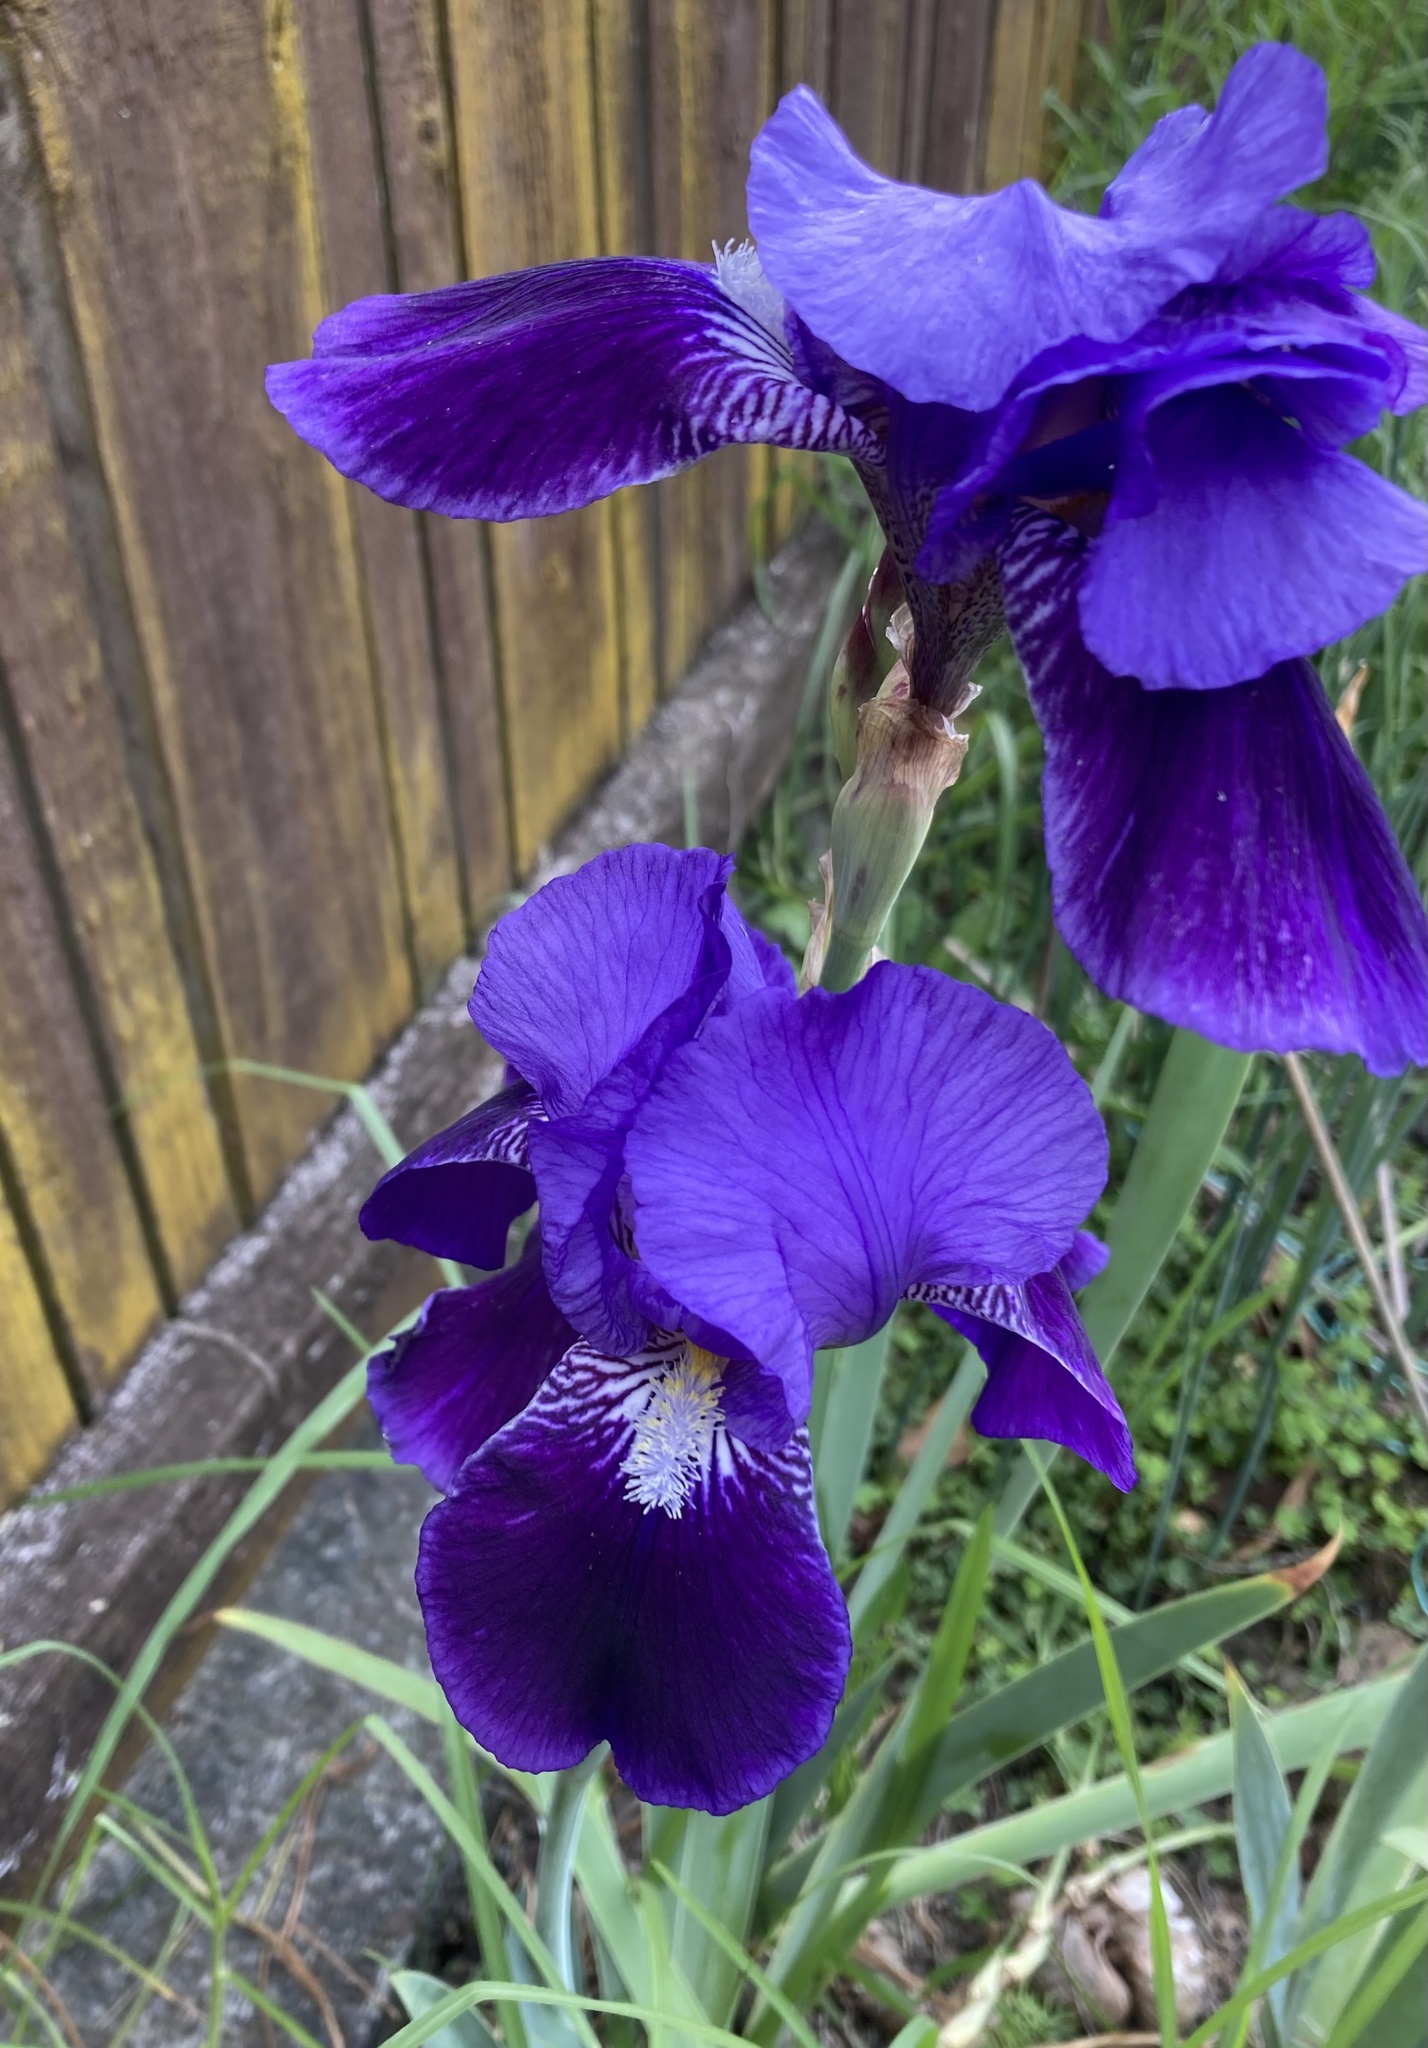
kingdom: Plantae
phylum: Tracheophyta
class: Liliopsida
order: Asparagales
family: Iridaceae
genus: Iris
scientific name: Iris germanica
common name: German iris
